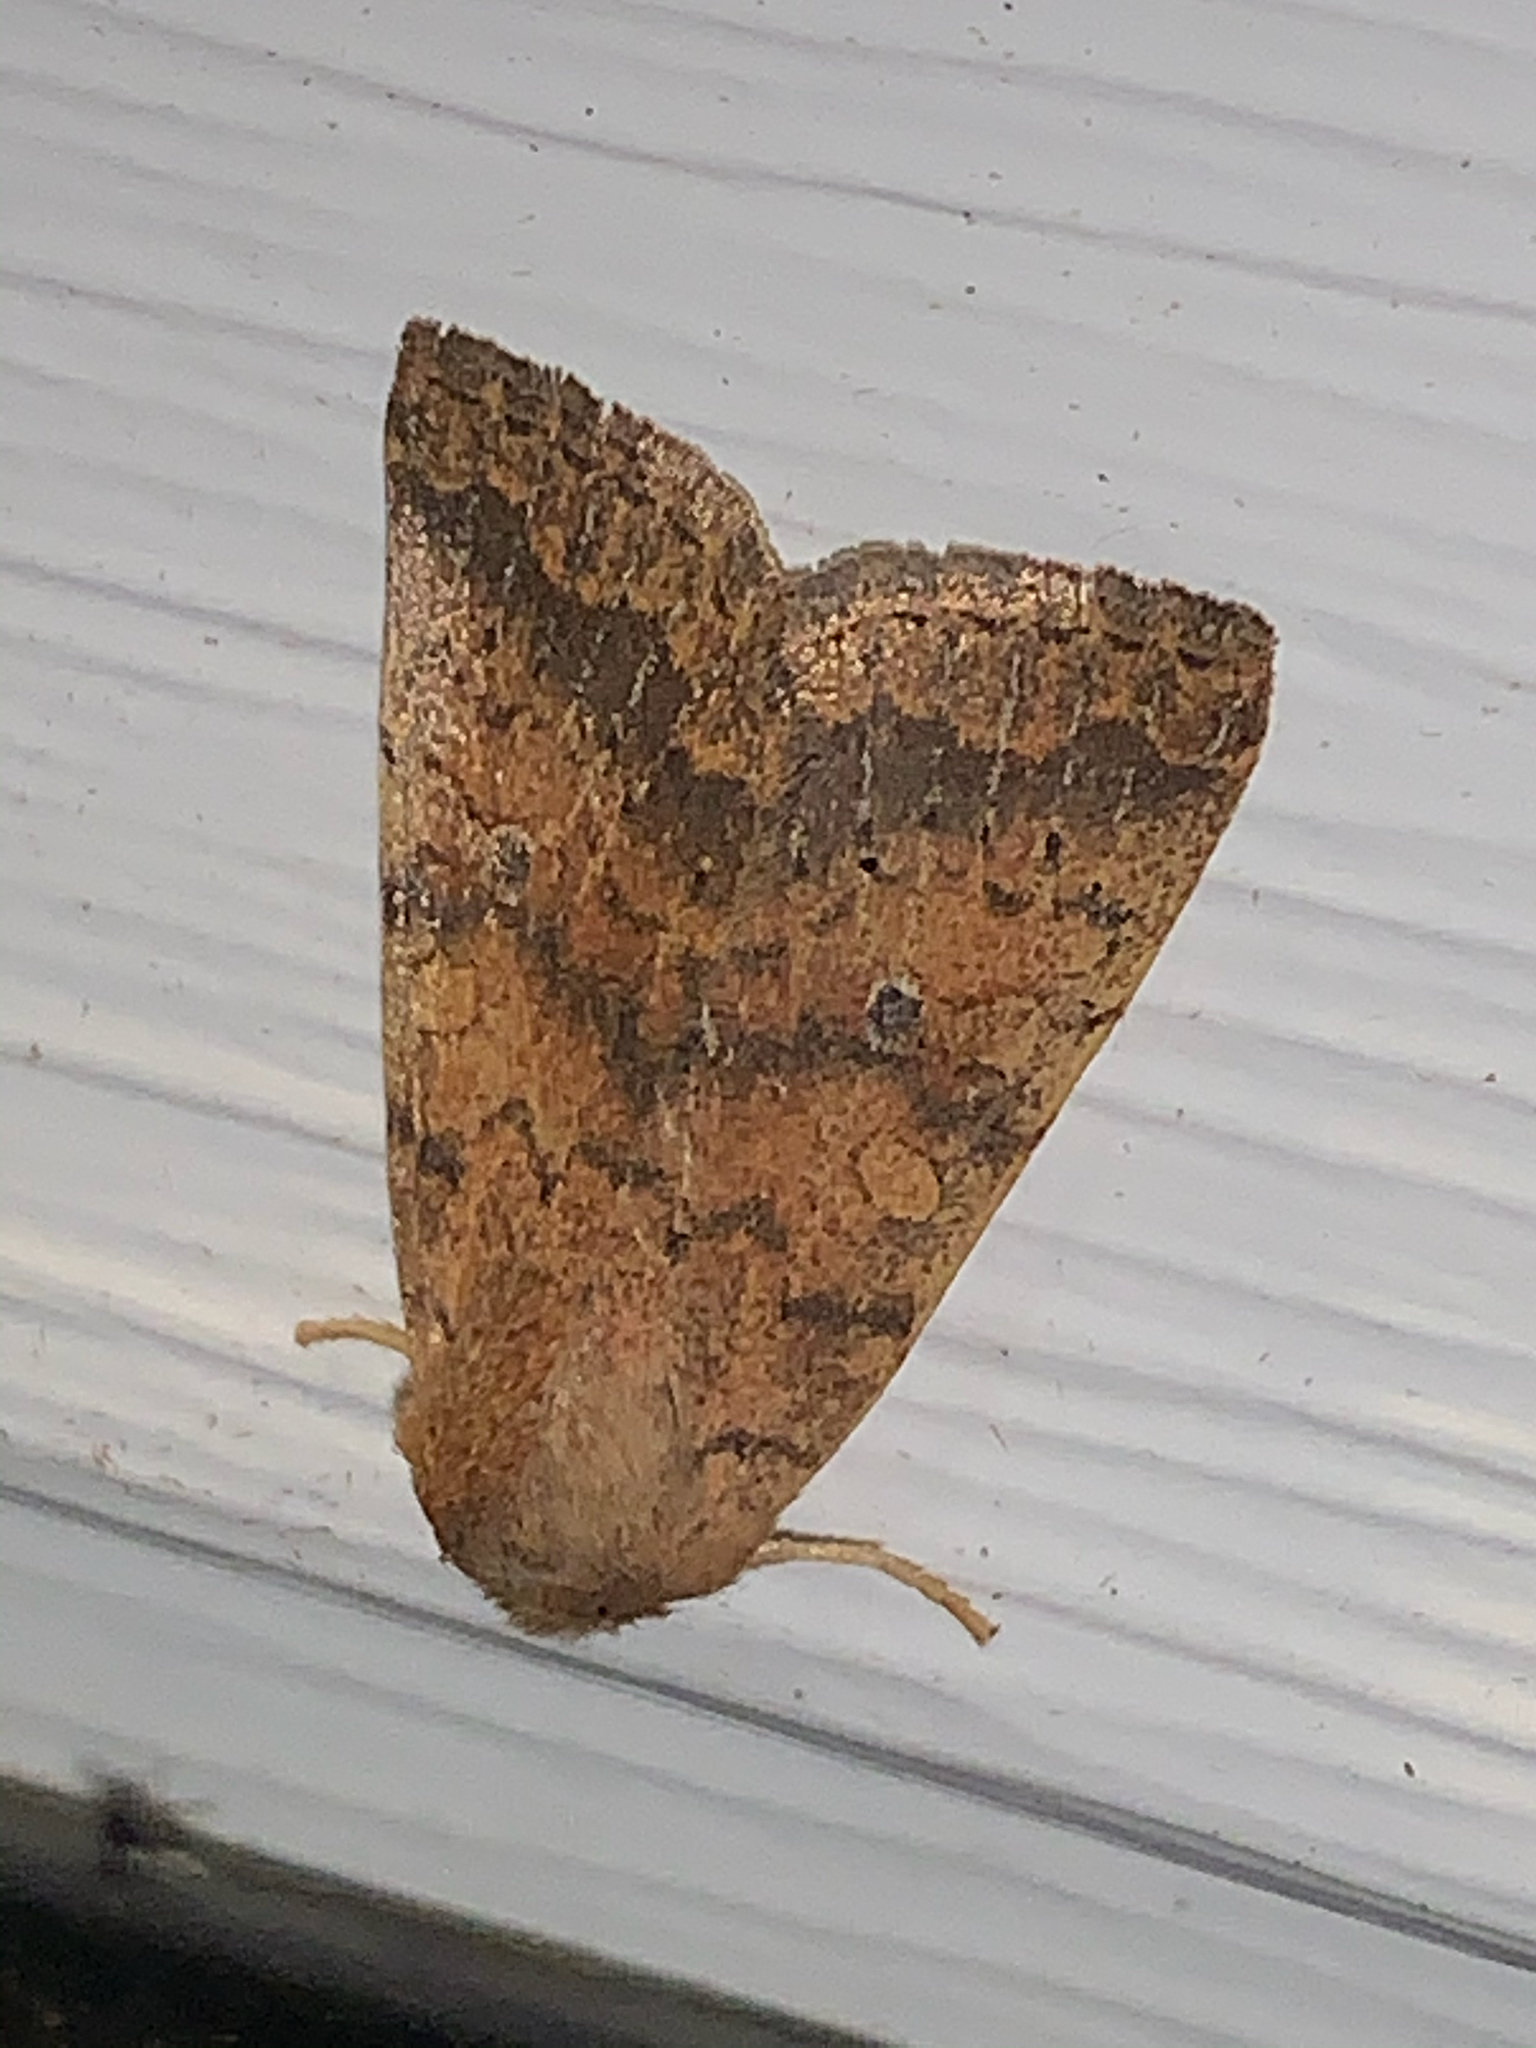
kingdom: Animalia
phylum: Arthropoda
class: Insecta
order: Lepidoptera
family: Noctuidae
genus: Agrochola
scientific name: Agrochola bicolorago
